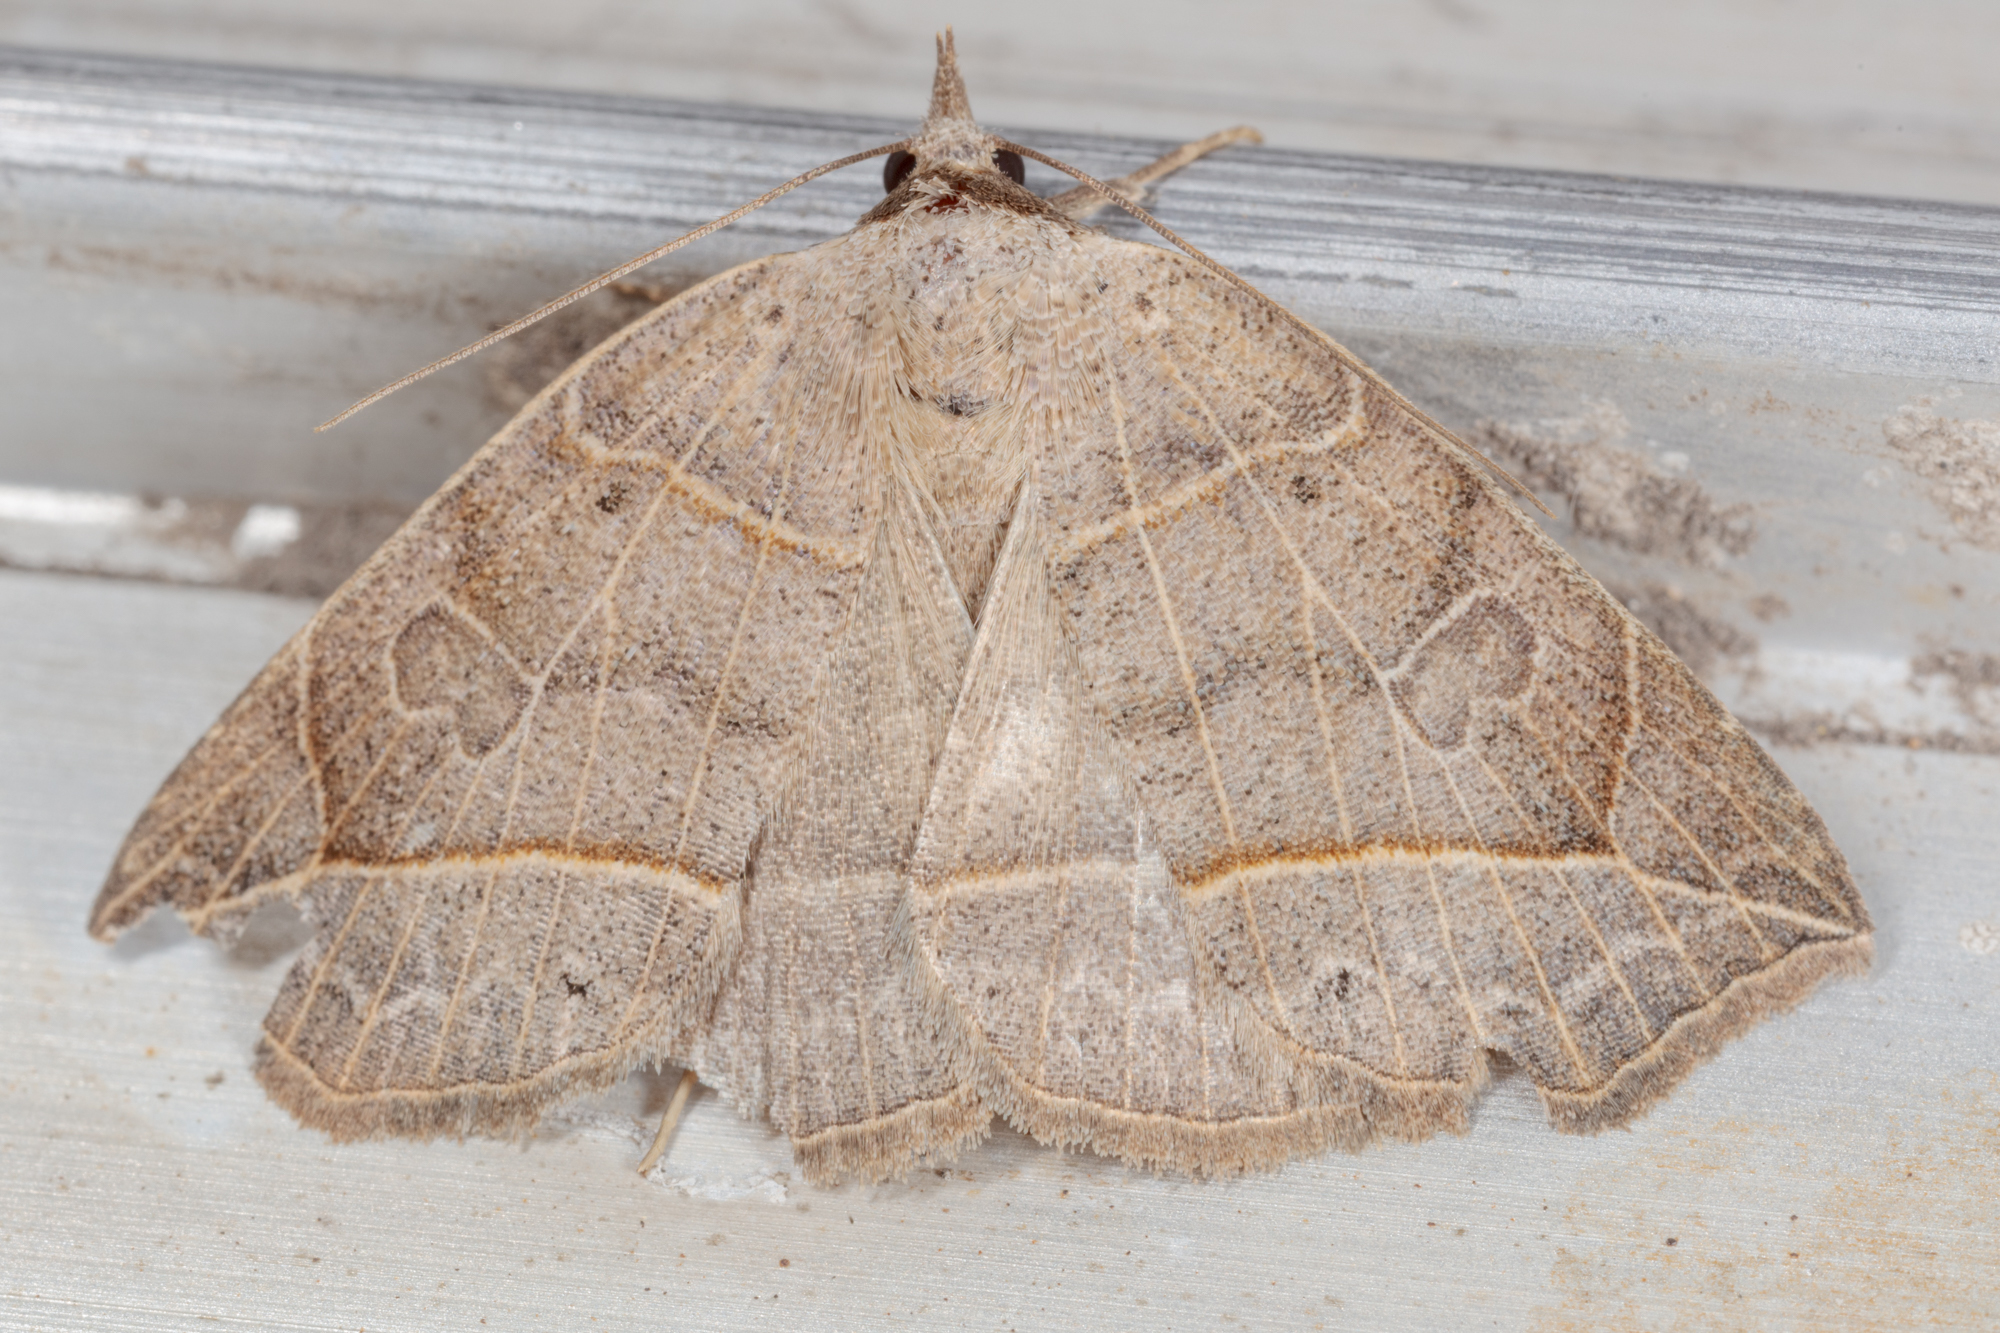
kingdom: Animalia
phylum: Arthropoda
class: Insecta
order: Lepidoptera
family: Erebidae
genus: Isogona
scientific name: Isogona tenuis
